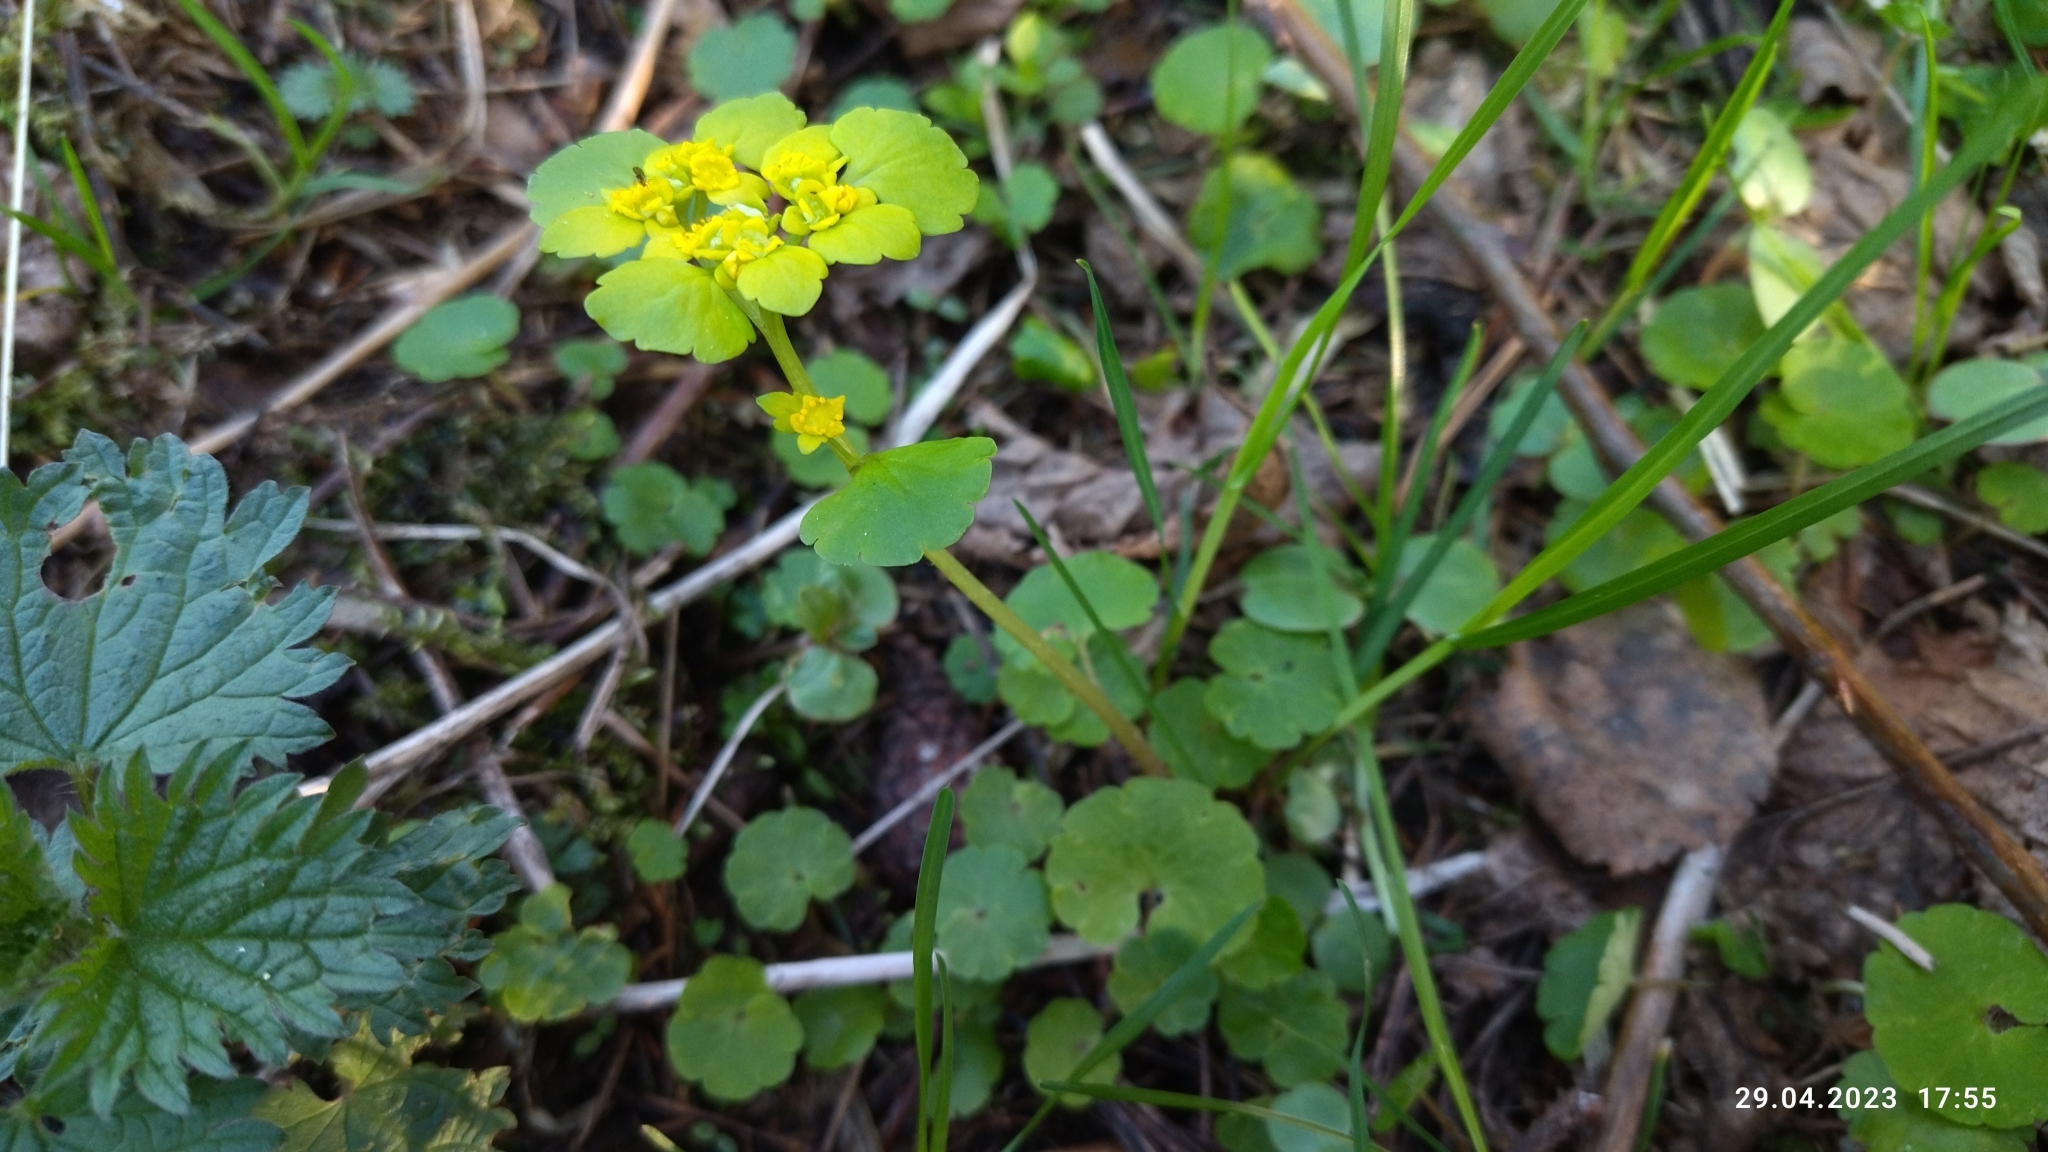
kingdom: Plantae
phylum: Tracheophyta
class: Magnoliopsida
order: Saxifragales
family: Saxifragaceae
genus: Chrysosplenium
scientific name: Chrysosplenium alternifolium
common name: Alternate-leaved golden-saxifrage
